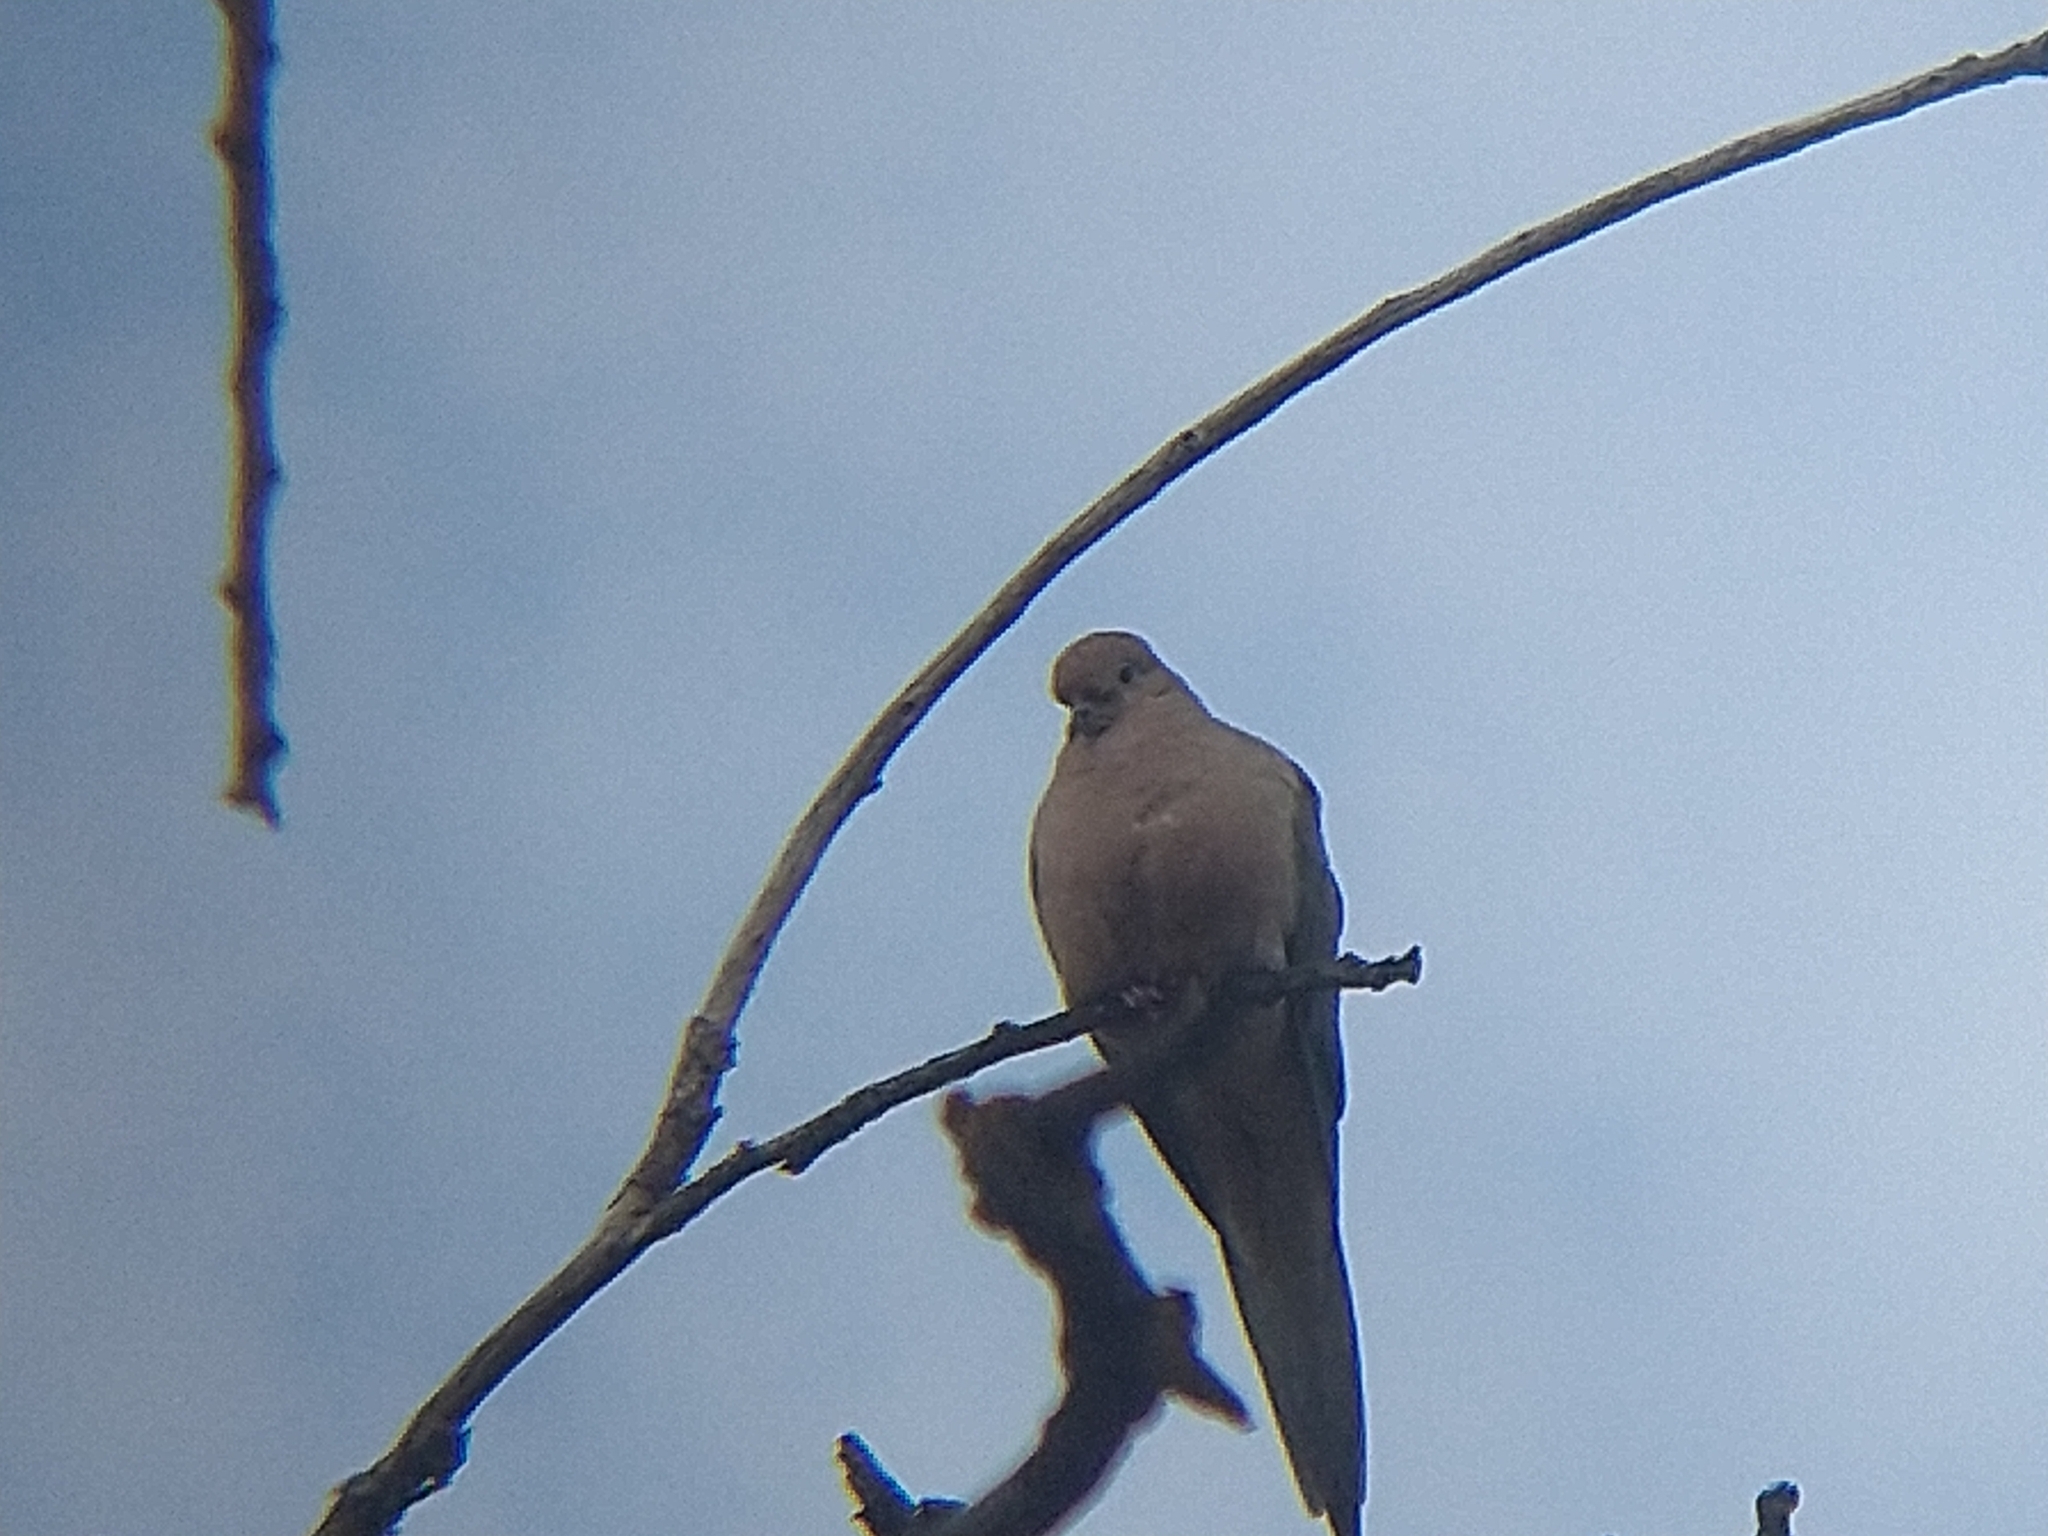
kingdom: Animalia
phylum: Chordata
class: Aves
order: Columbiformes
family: Columbidae
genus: Zenaida
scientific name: Zenaida macroura
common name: Mourning dove
